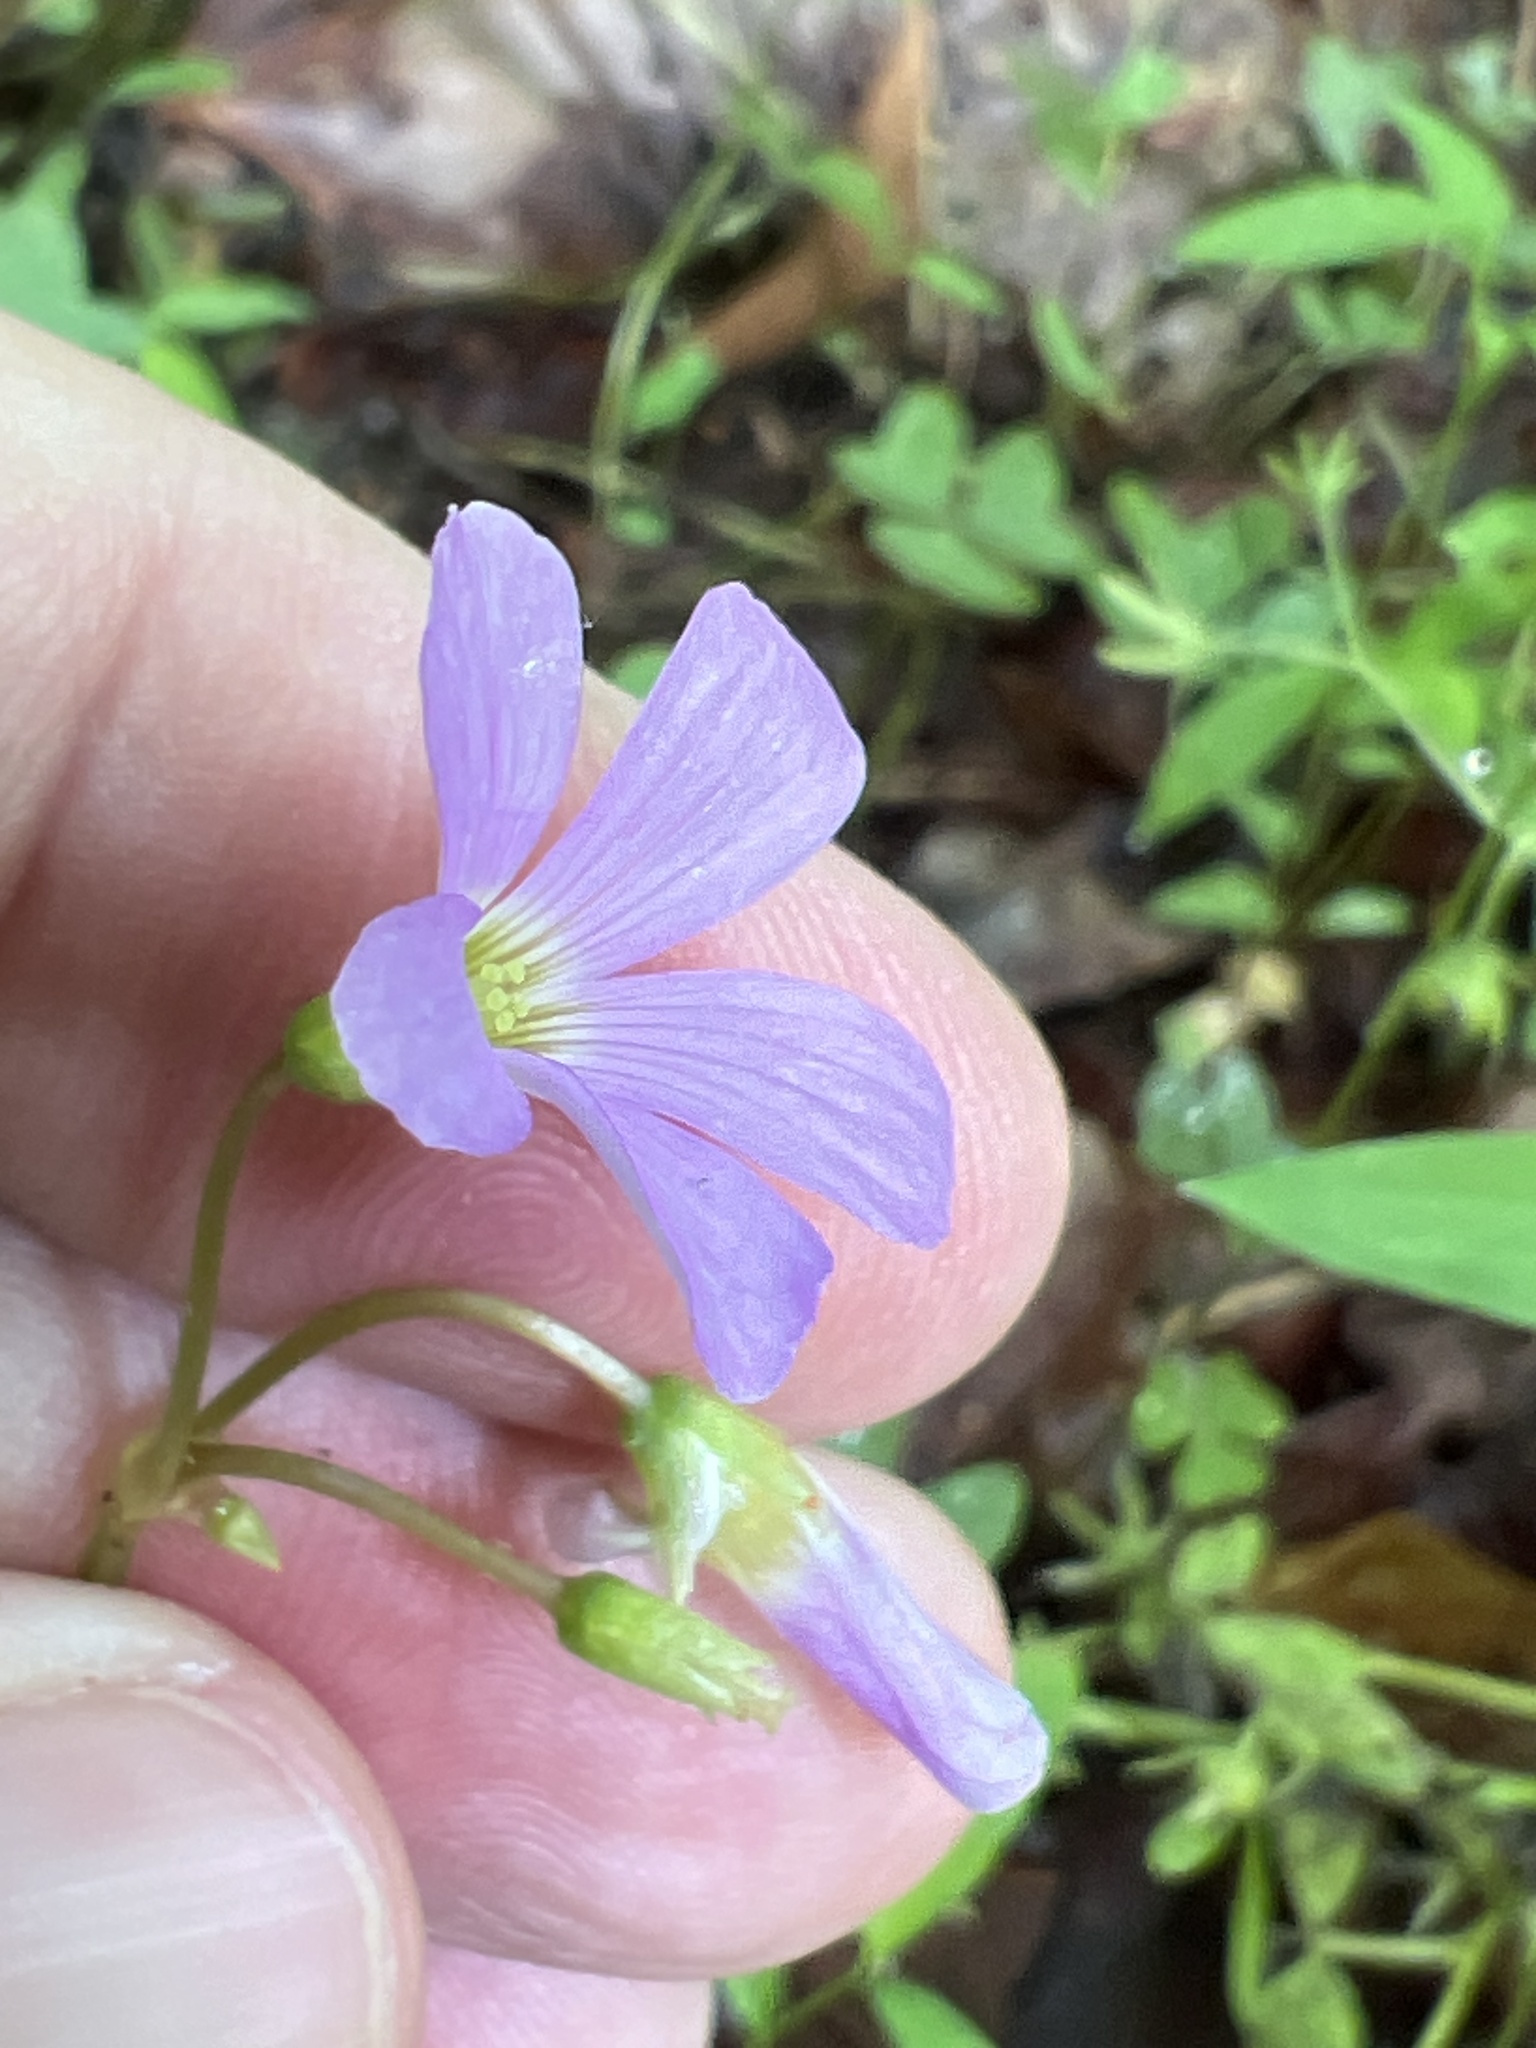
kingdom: Plantae
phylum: Tracheophyta
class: Magnoliopsida
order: Oxalidales
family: Oxalidaceae
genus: Oxalis
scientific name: Oxalis violacea
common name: Violet wood-sorrel
